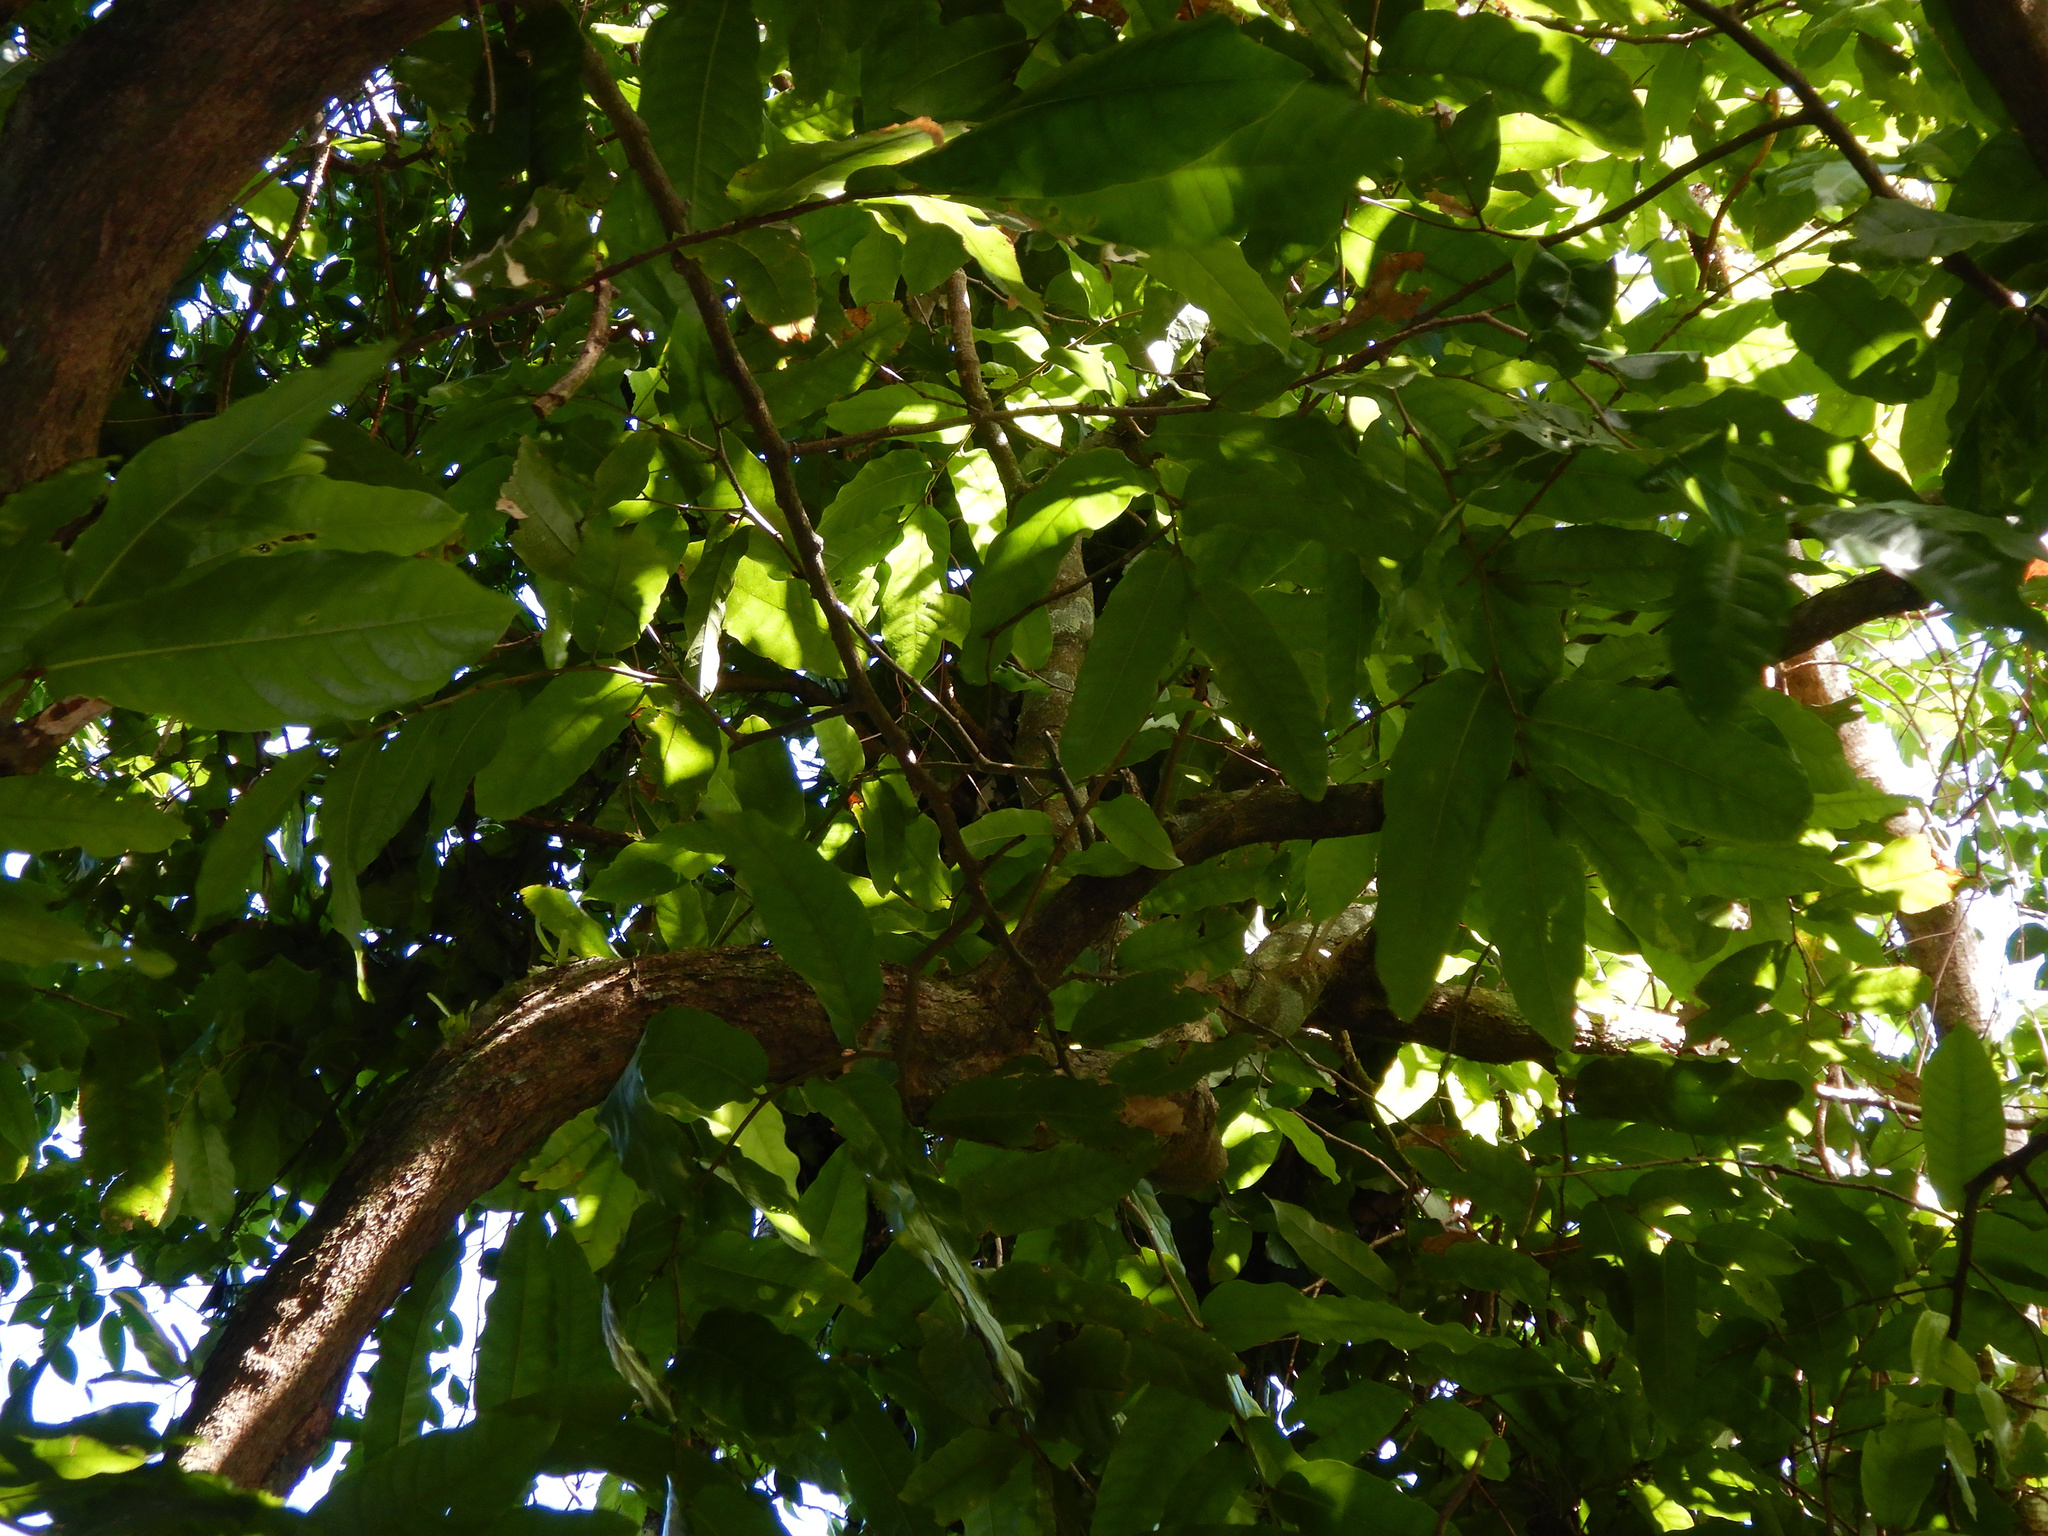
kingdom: Plantae
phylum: Tracheophyta
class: Magnoliopsida
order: Fabales
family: Fabaceae
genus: Inocarpus
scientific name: Inocarpus fagifer
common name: Polynesian chestnut
